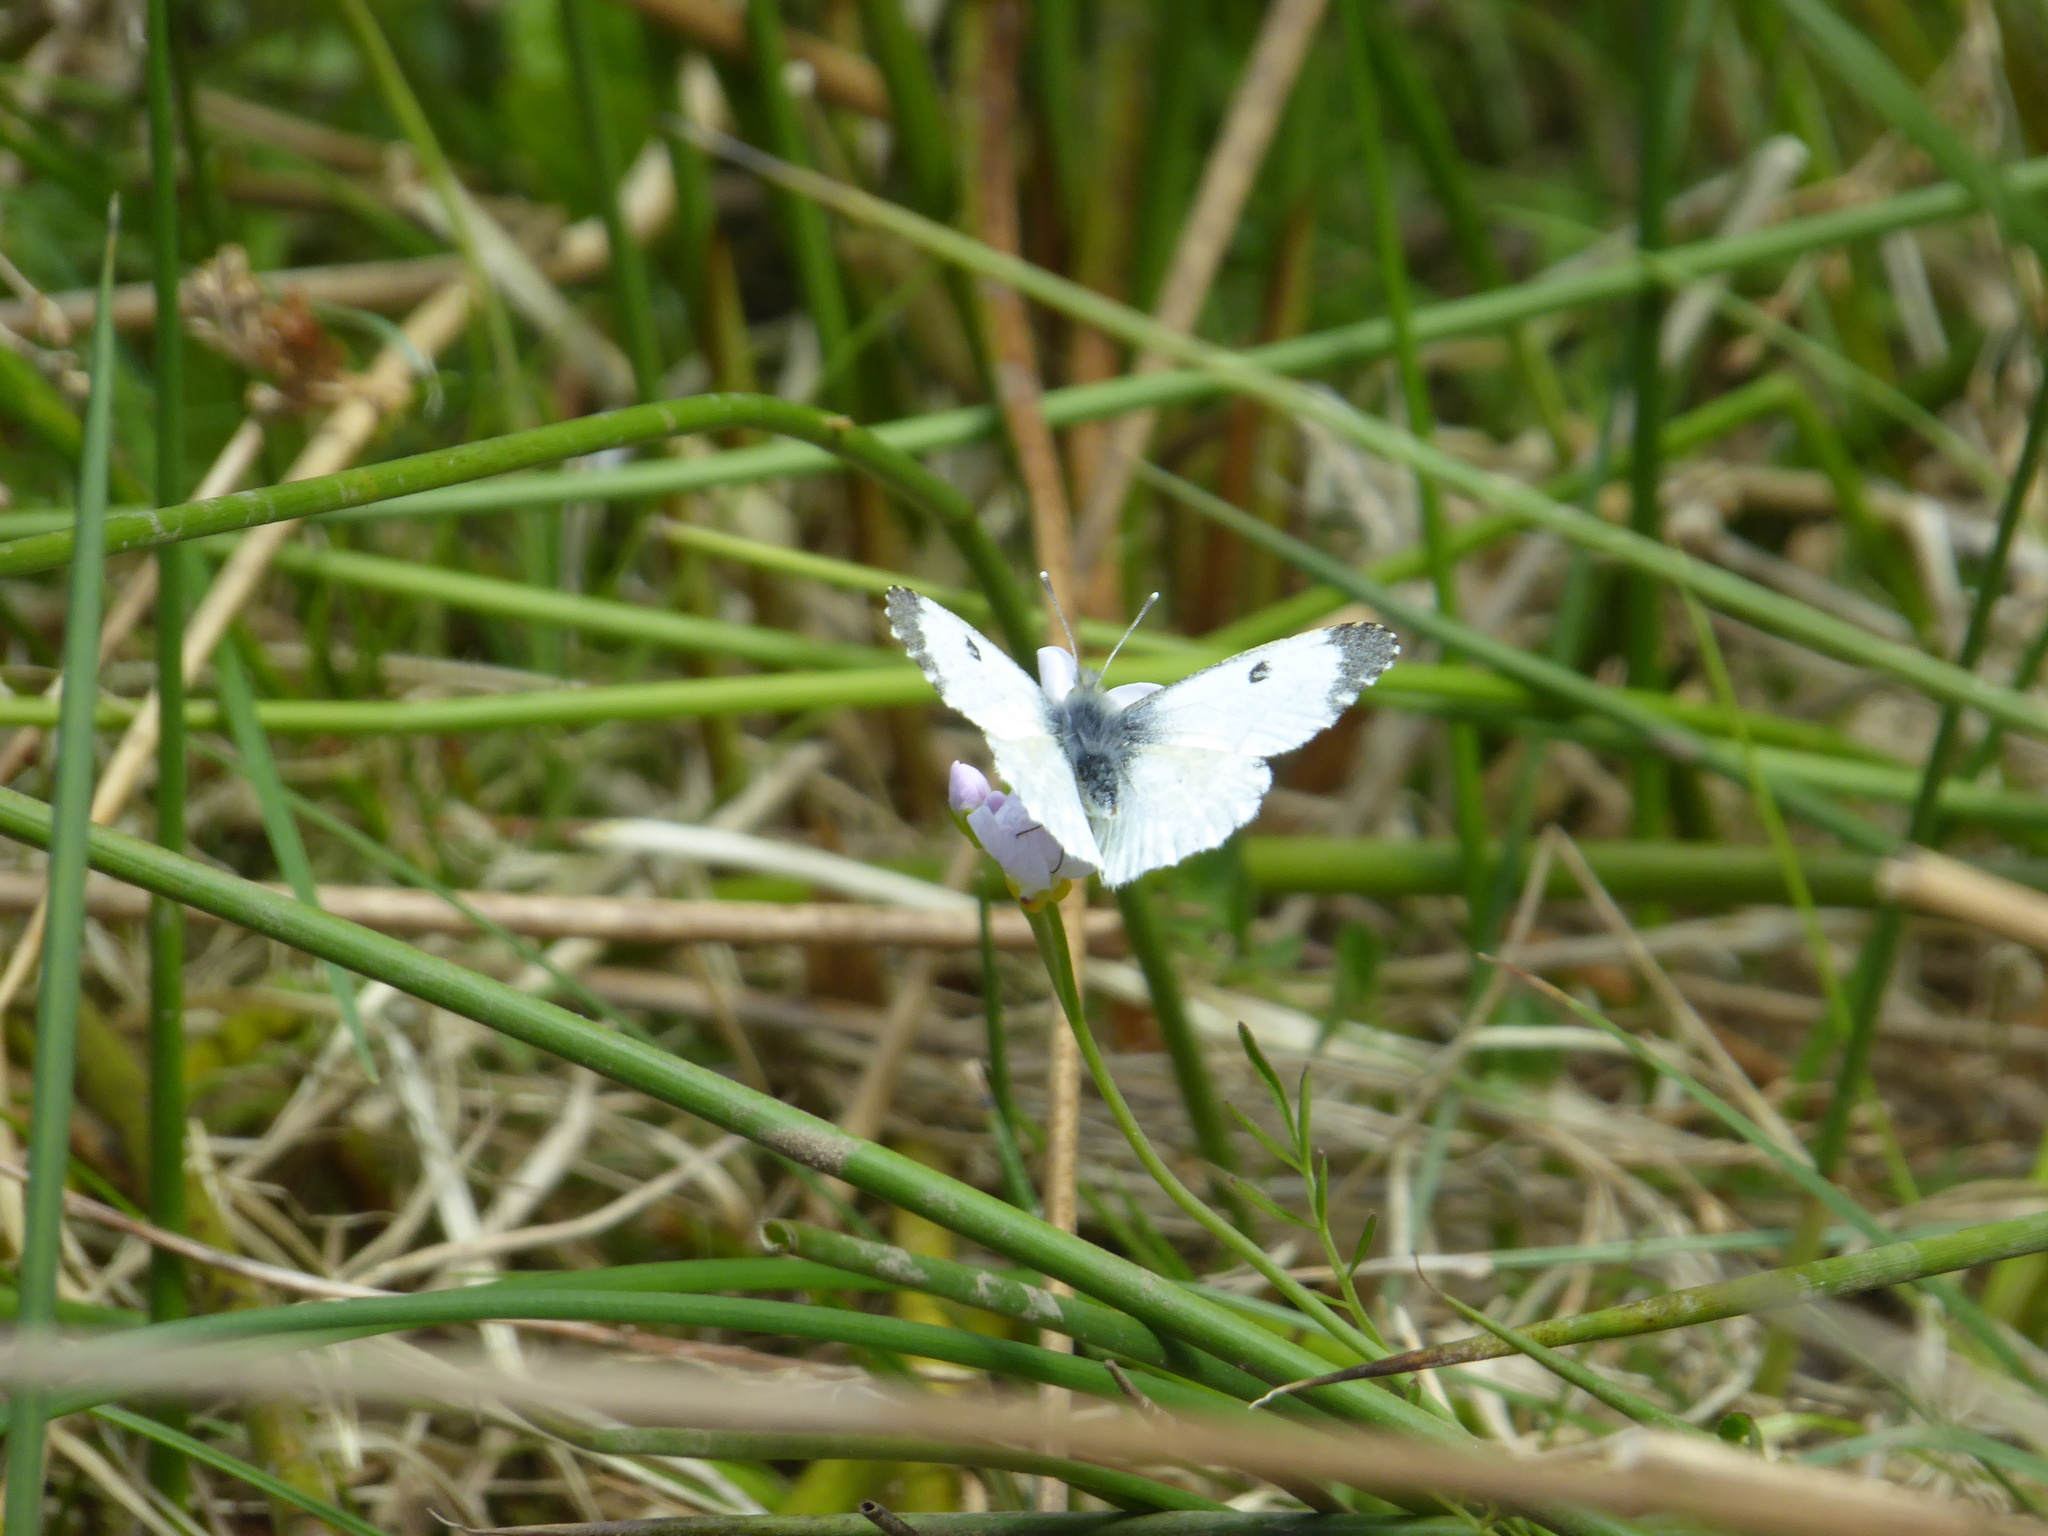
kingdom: Animalia
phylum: Arthropoda
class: Insecta
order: Lepidoptera
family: Pieridae
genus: Anthocharis
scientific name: Anthocharis cardamines
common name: Orange-tip
